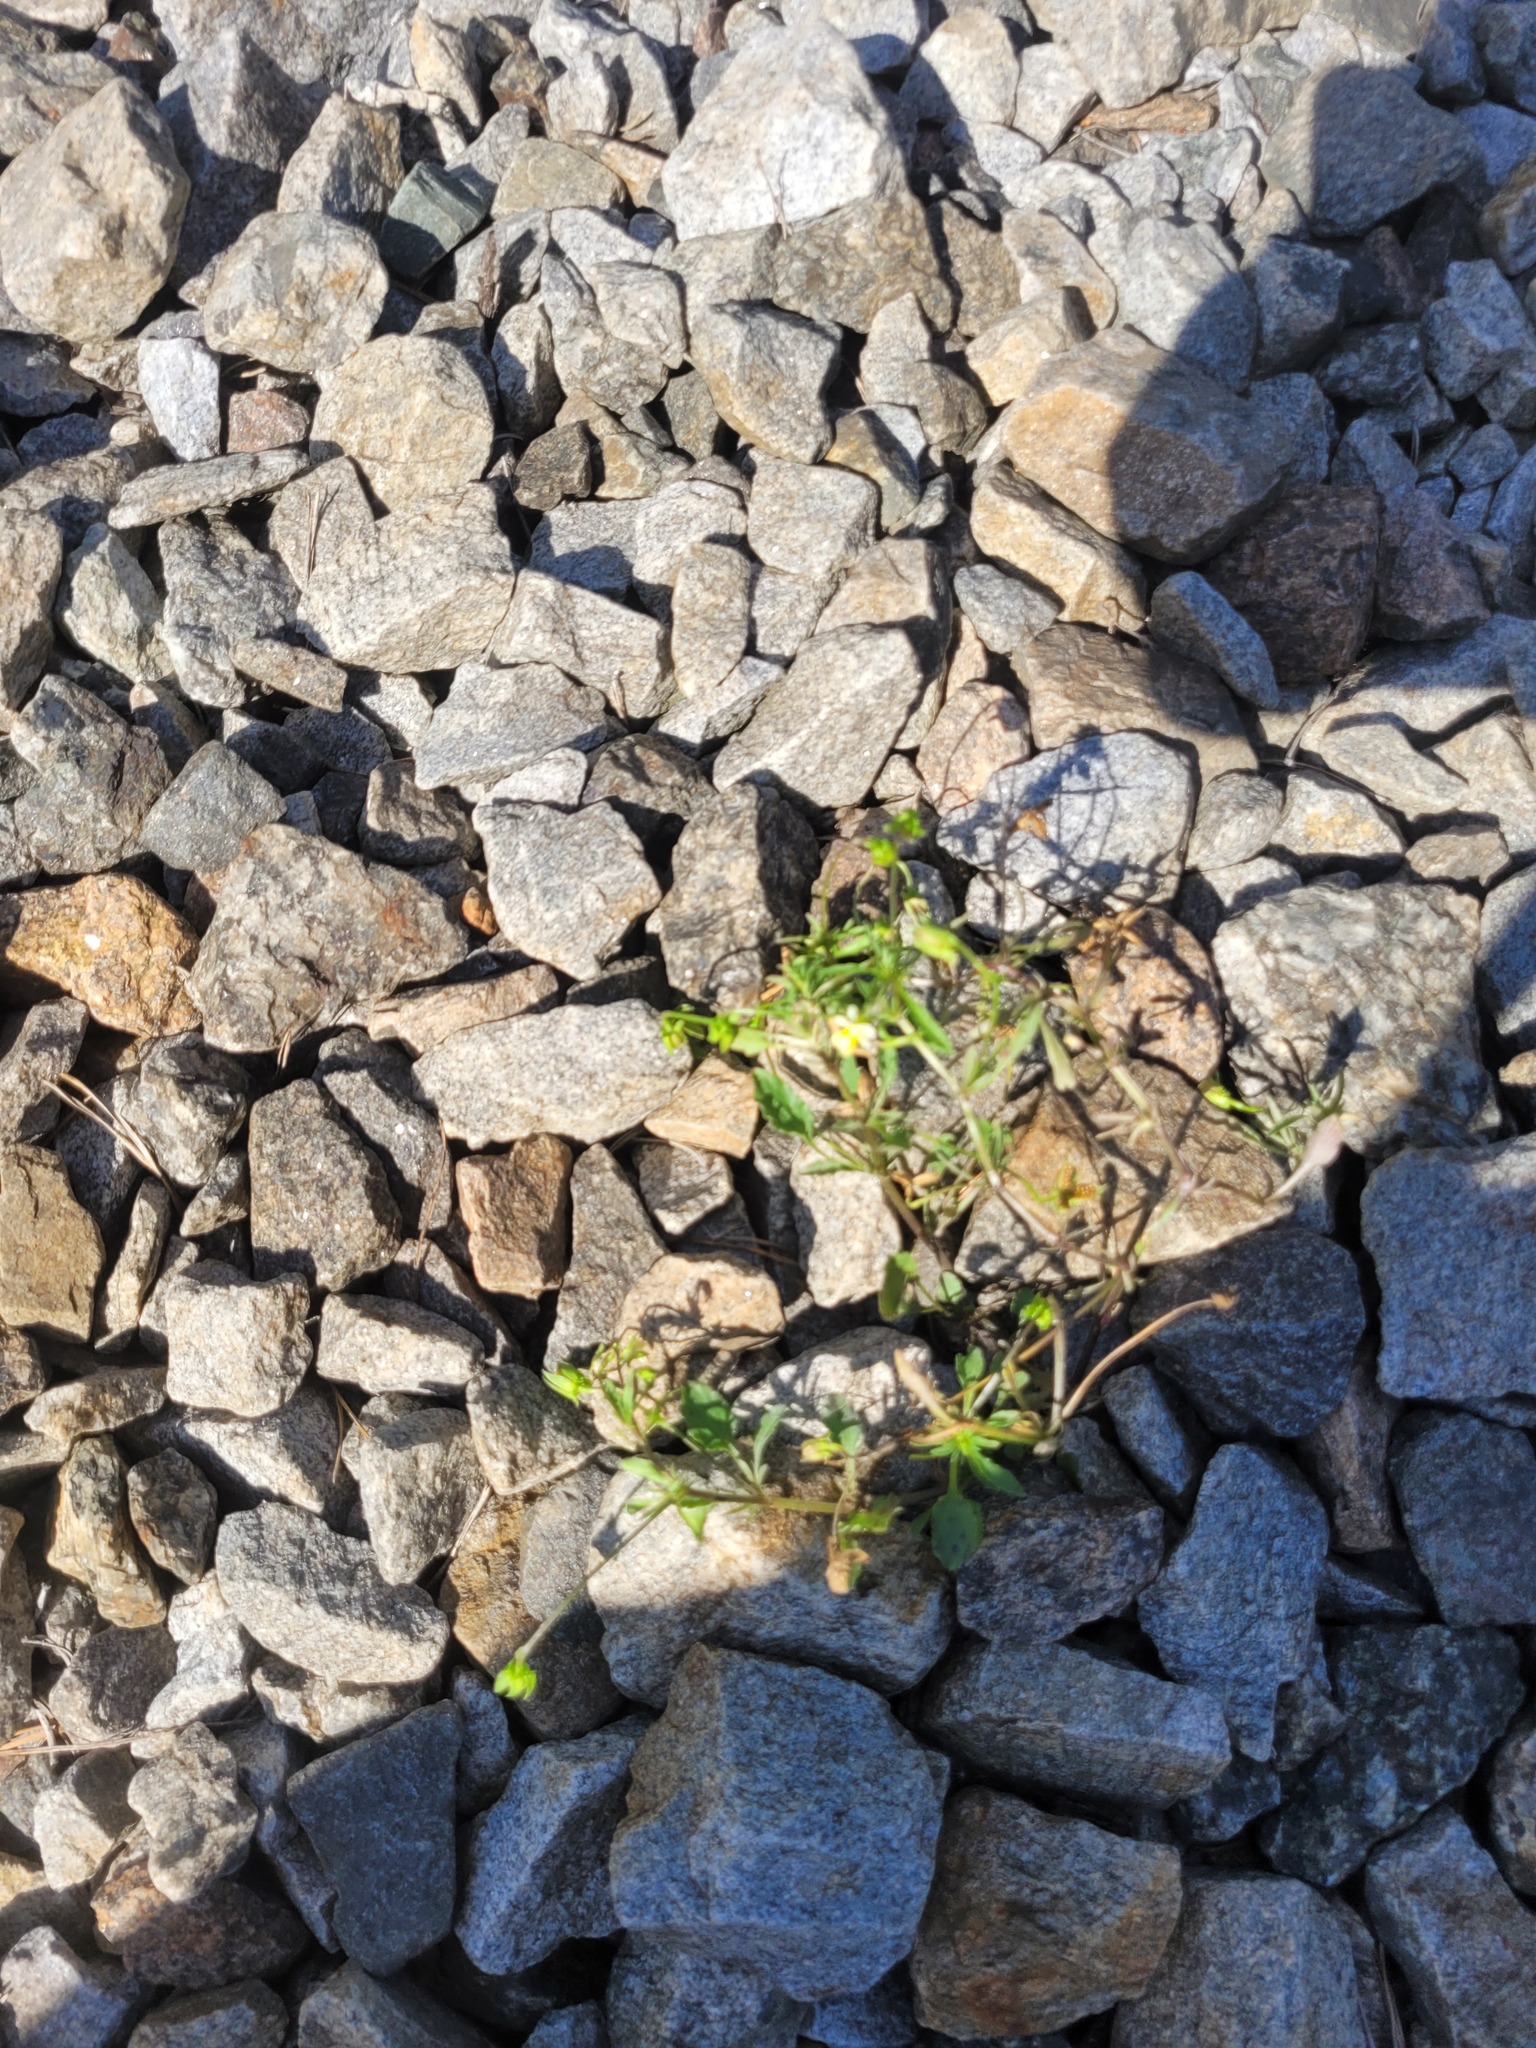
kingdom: Plantae
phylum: Tracheophyta
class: Magnoliopsida
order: Malpighiales
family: Violaceae
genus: Viola
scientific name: Viola arvensis
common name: Field pansy
